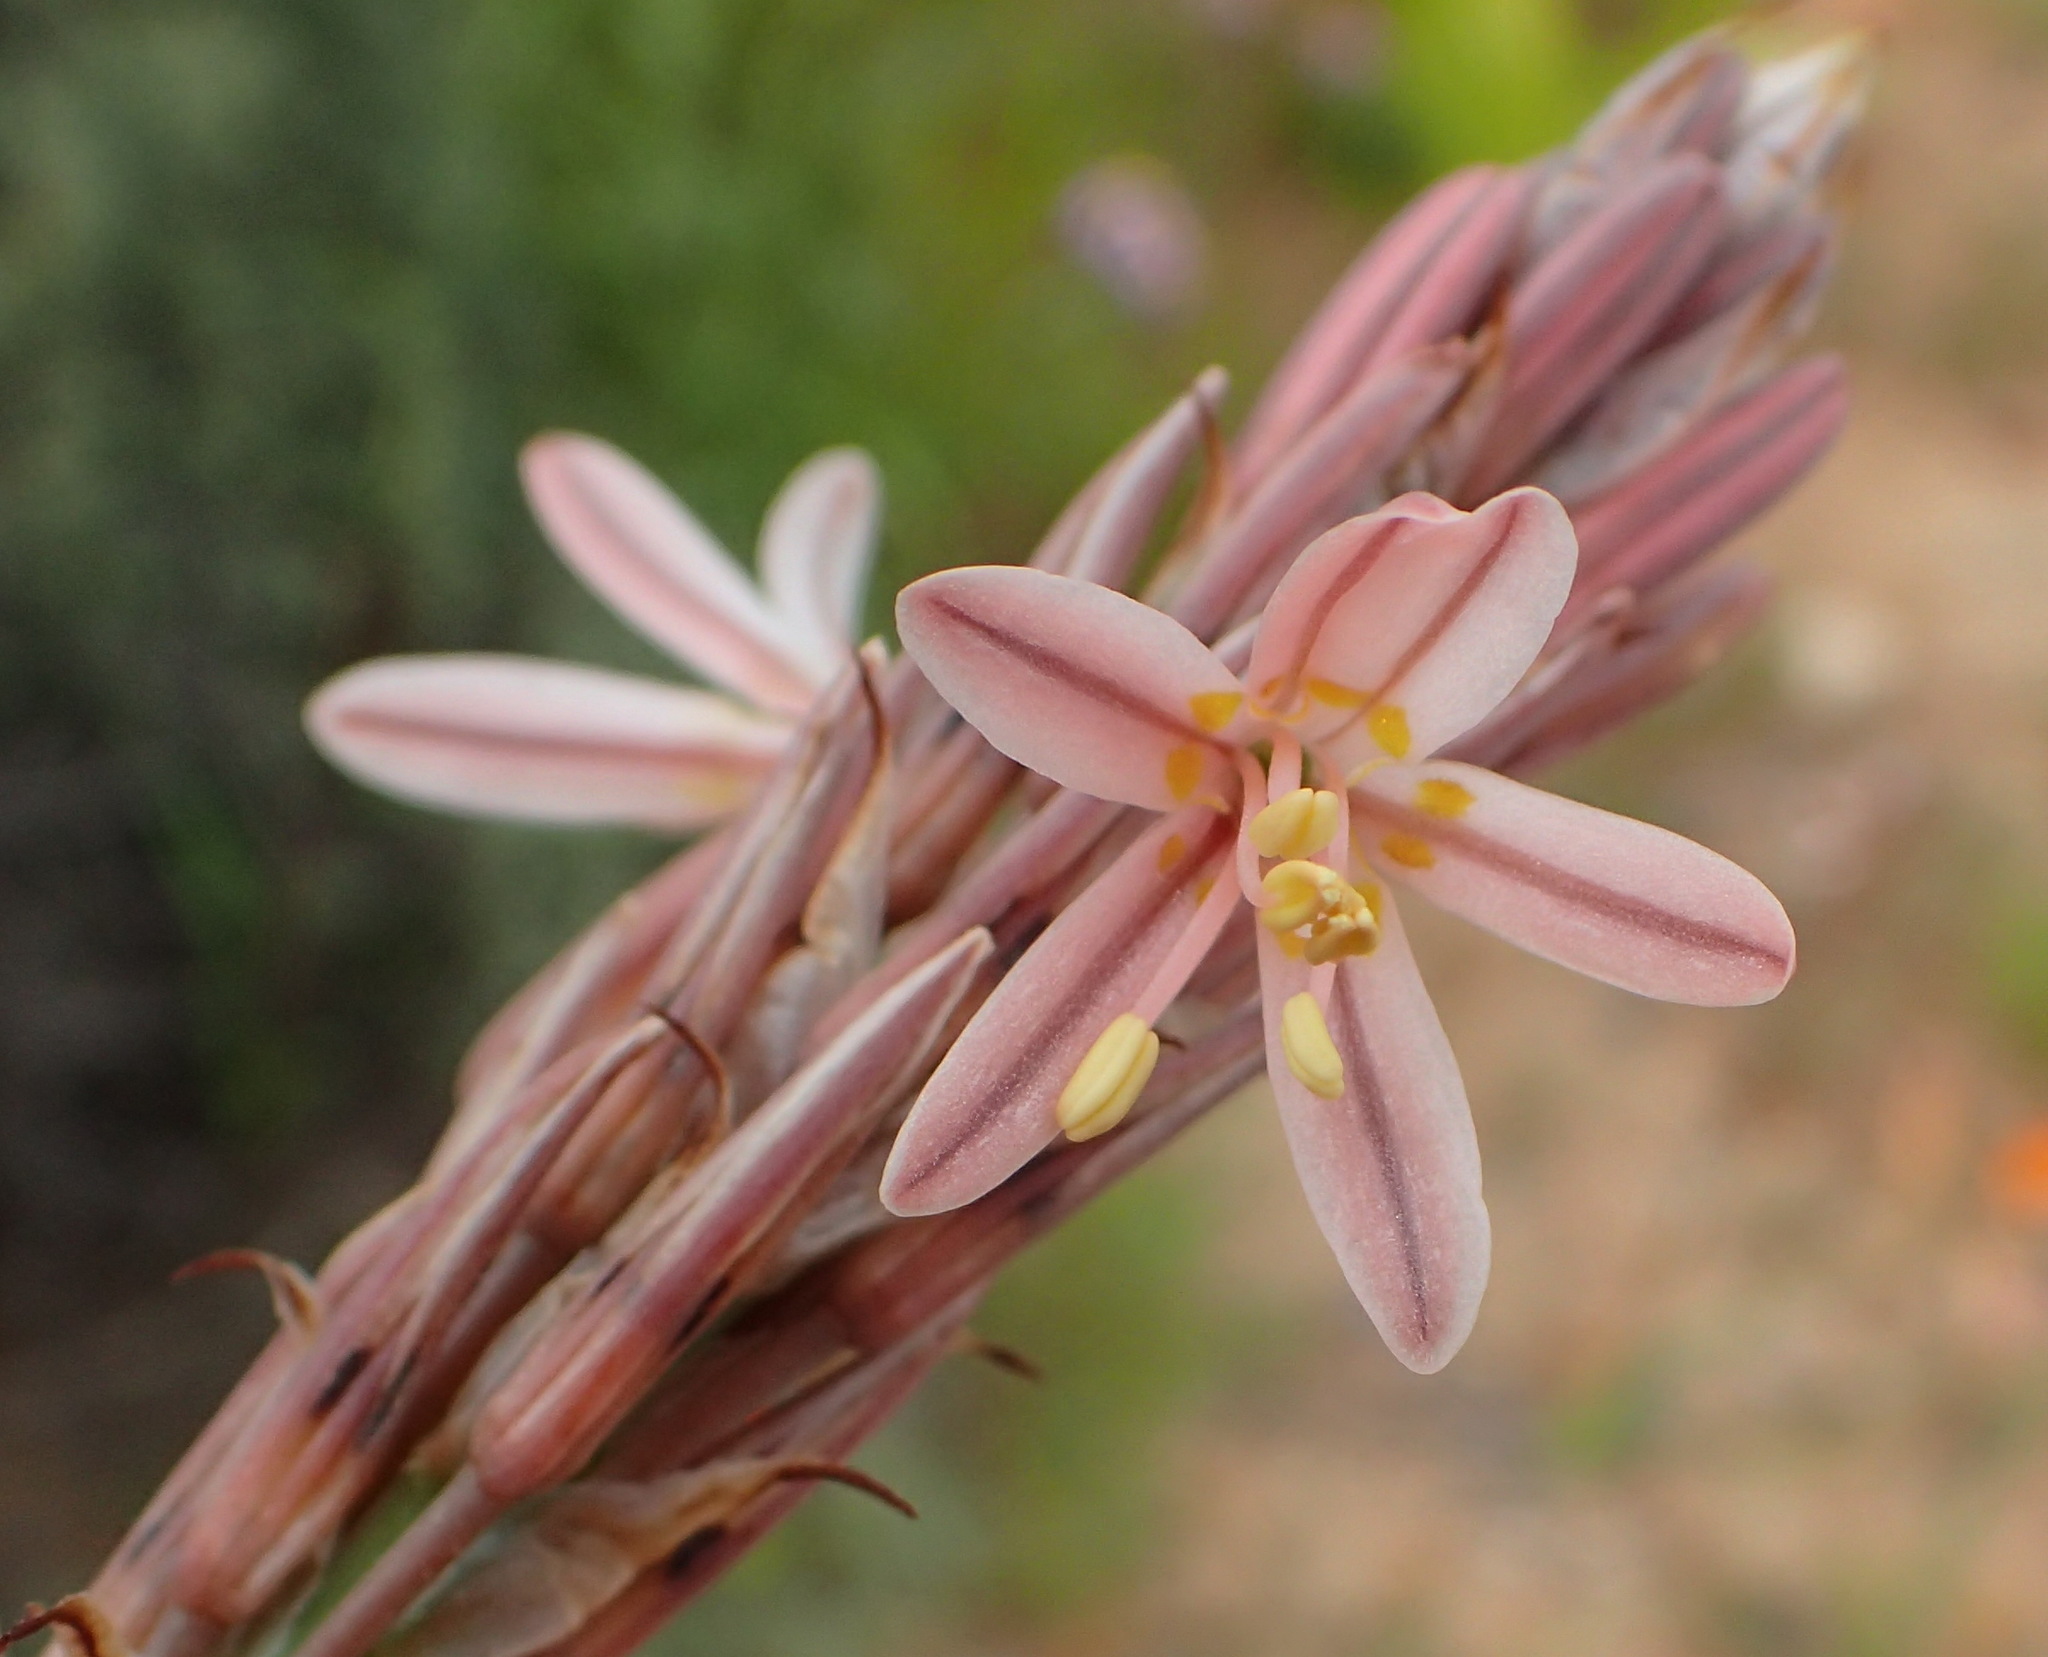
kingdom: Plantae
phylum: Tracheophyta
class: Liliopsida
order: Asparagales
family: Asphodelaceae
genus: Trachyandra
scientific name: Trachyandra falcata
